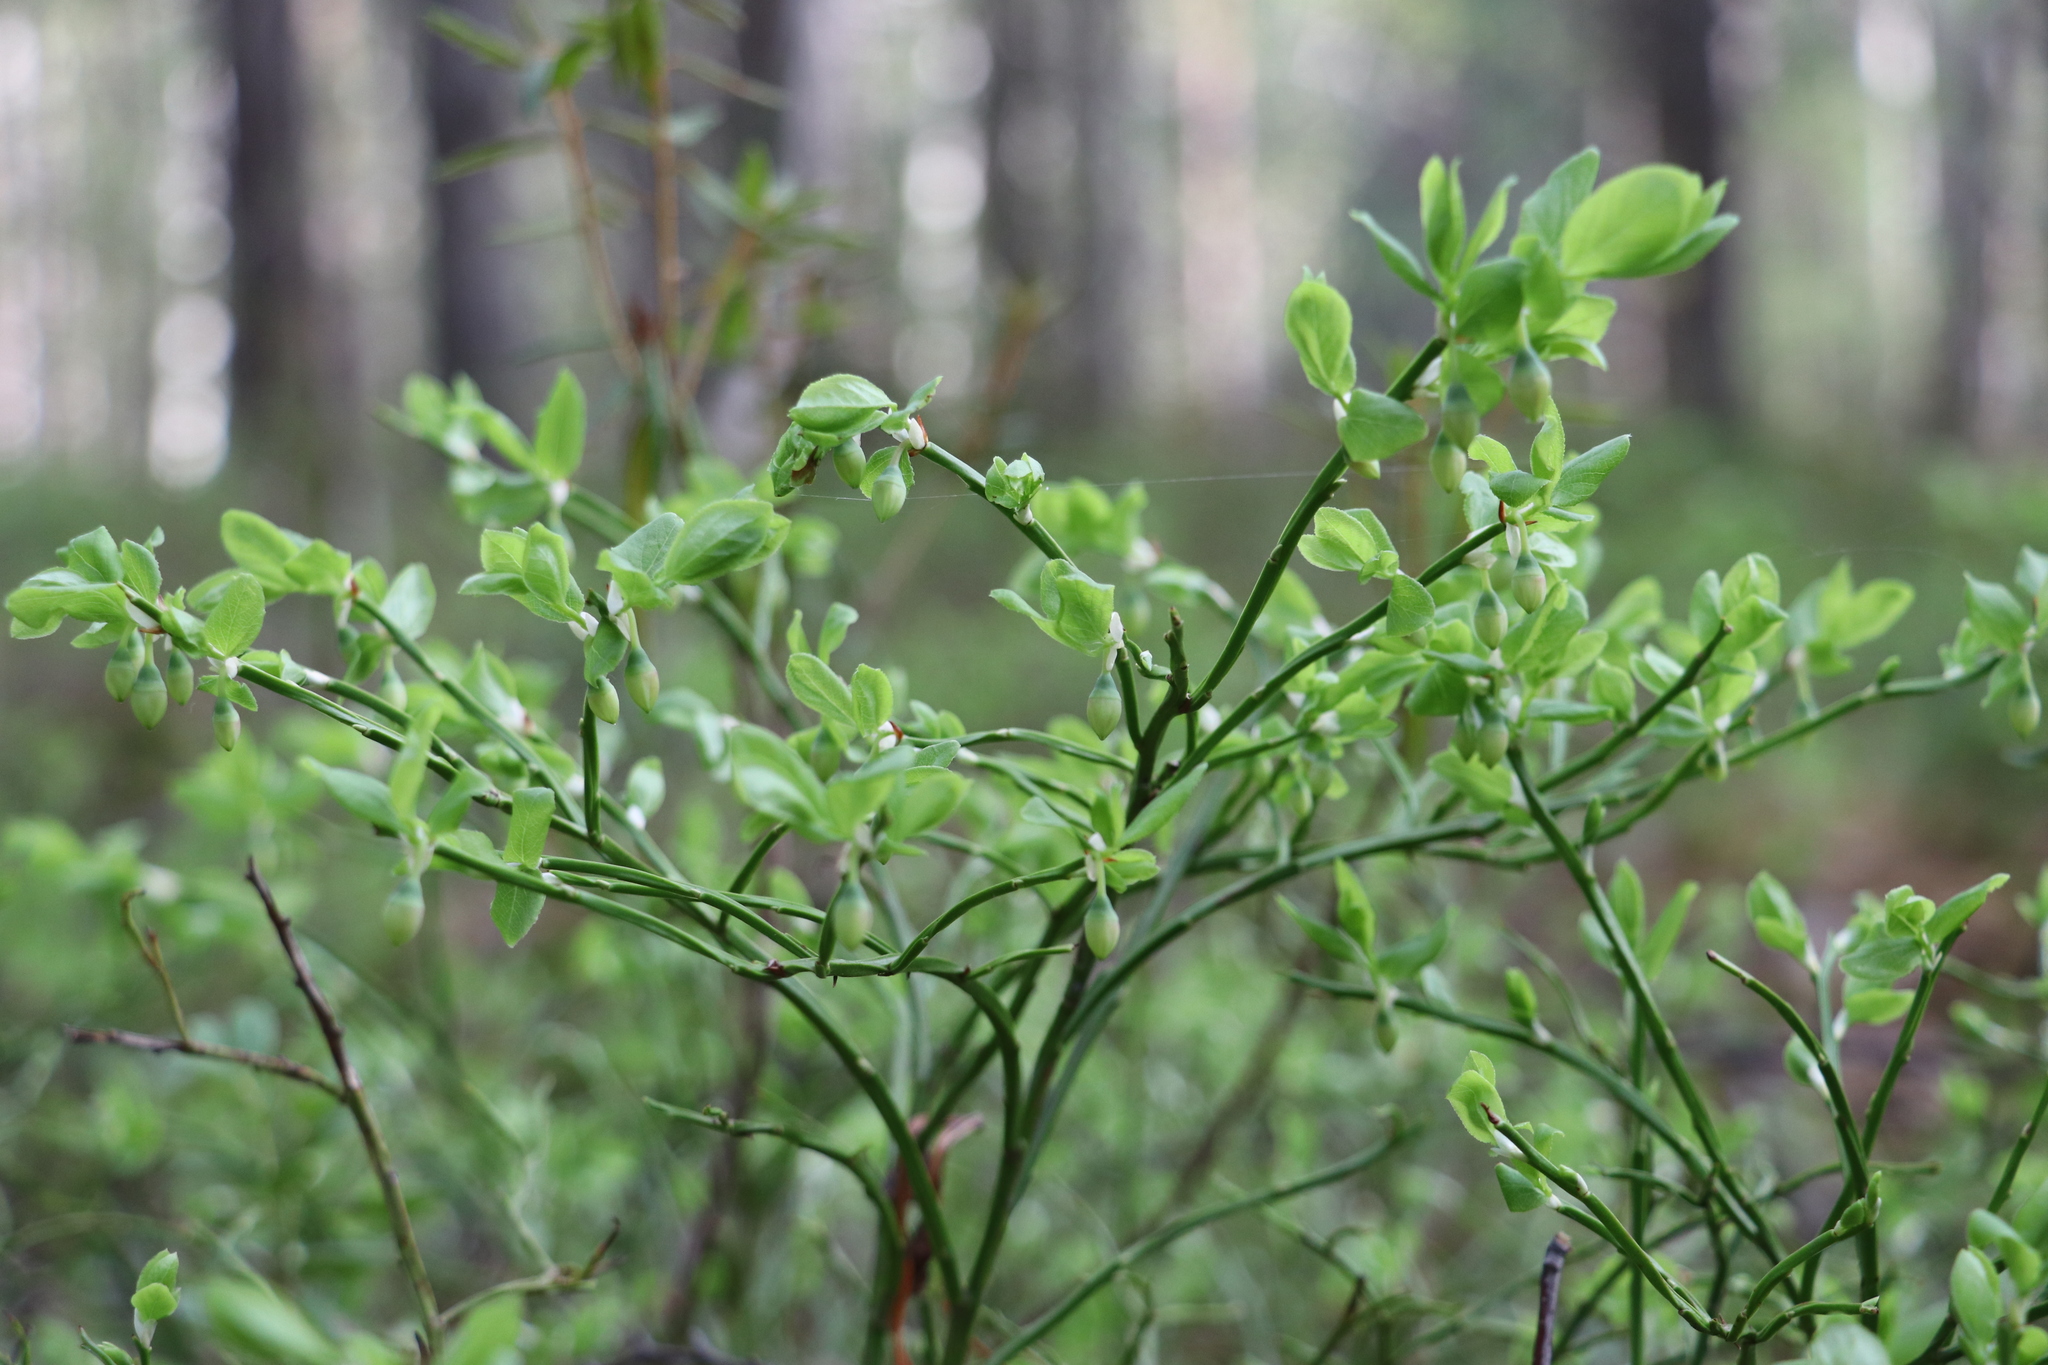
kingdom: Plantae
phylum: Tracheophyta
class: Magnoliopsida
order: Ericales
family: Ericaceae
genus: Vaccinium
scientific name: Vaccinium myrtillus
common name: Bilberry
